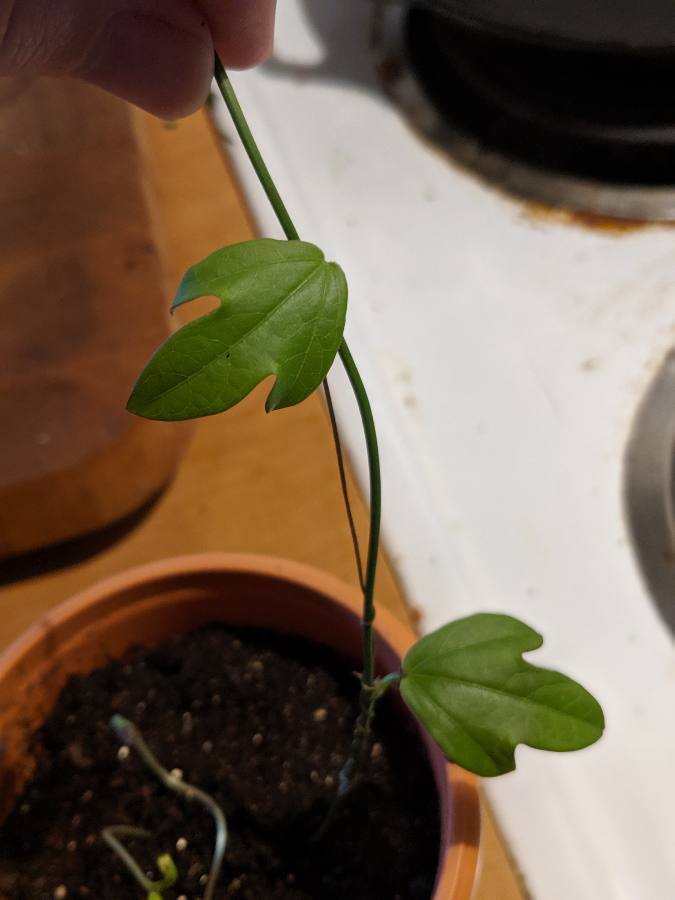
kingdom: Plantae
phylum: Tracheophyta
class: Magnoliopsida
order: Malpighiales
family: Passifloraceae
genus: Passiflora
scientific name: Passiflora pallida
